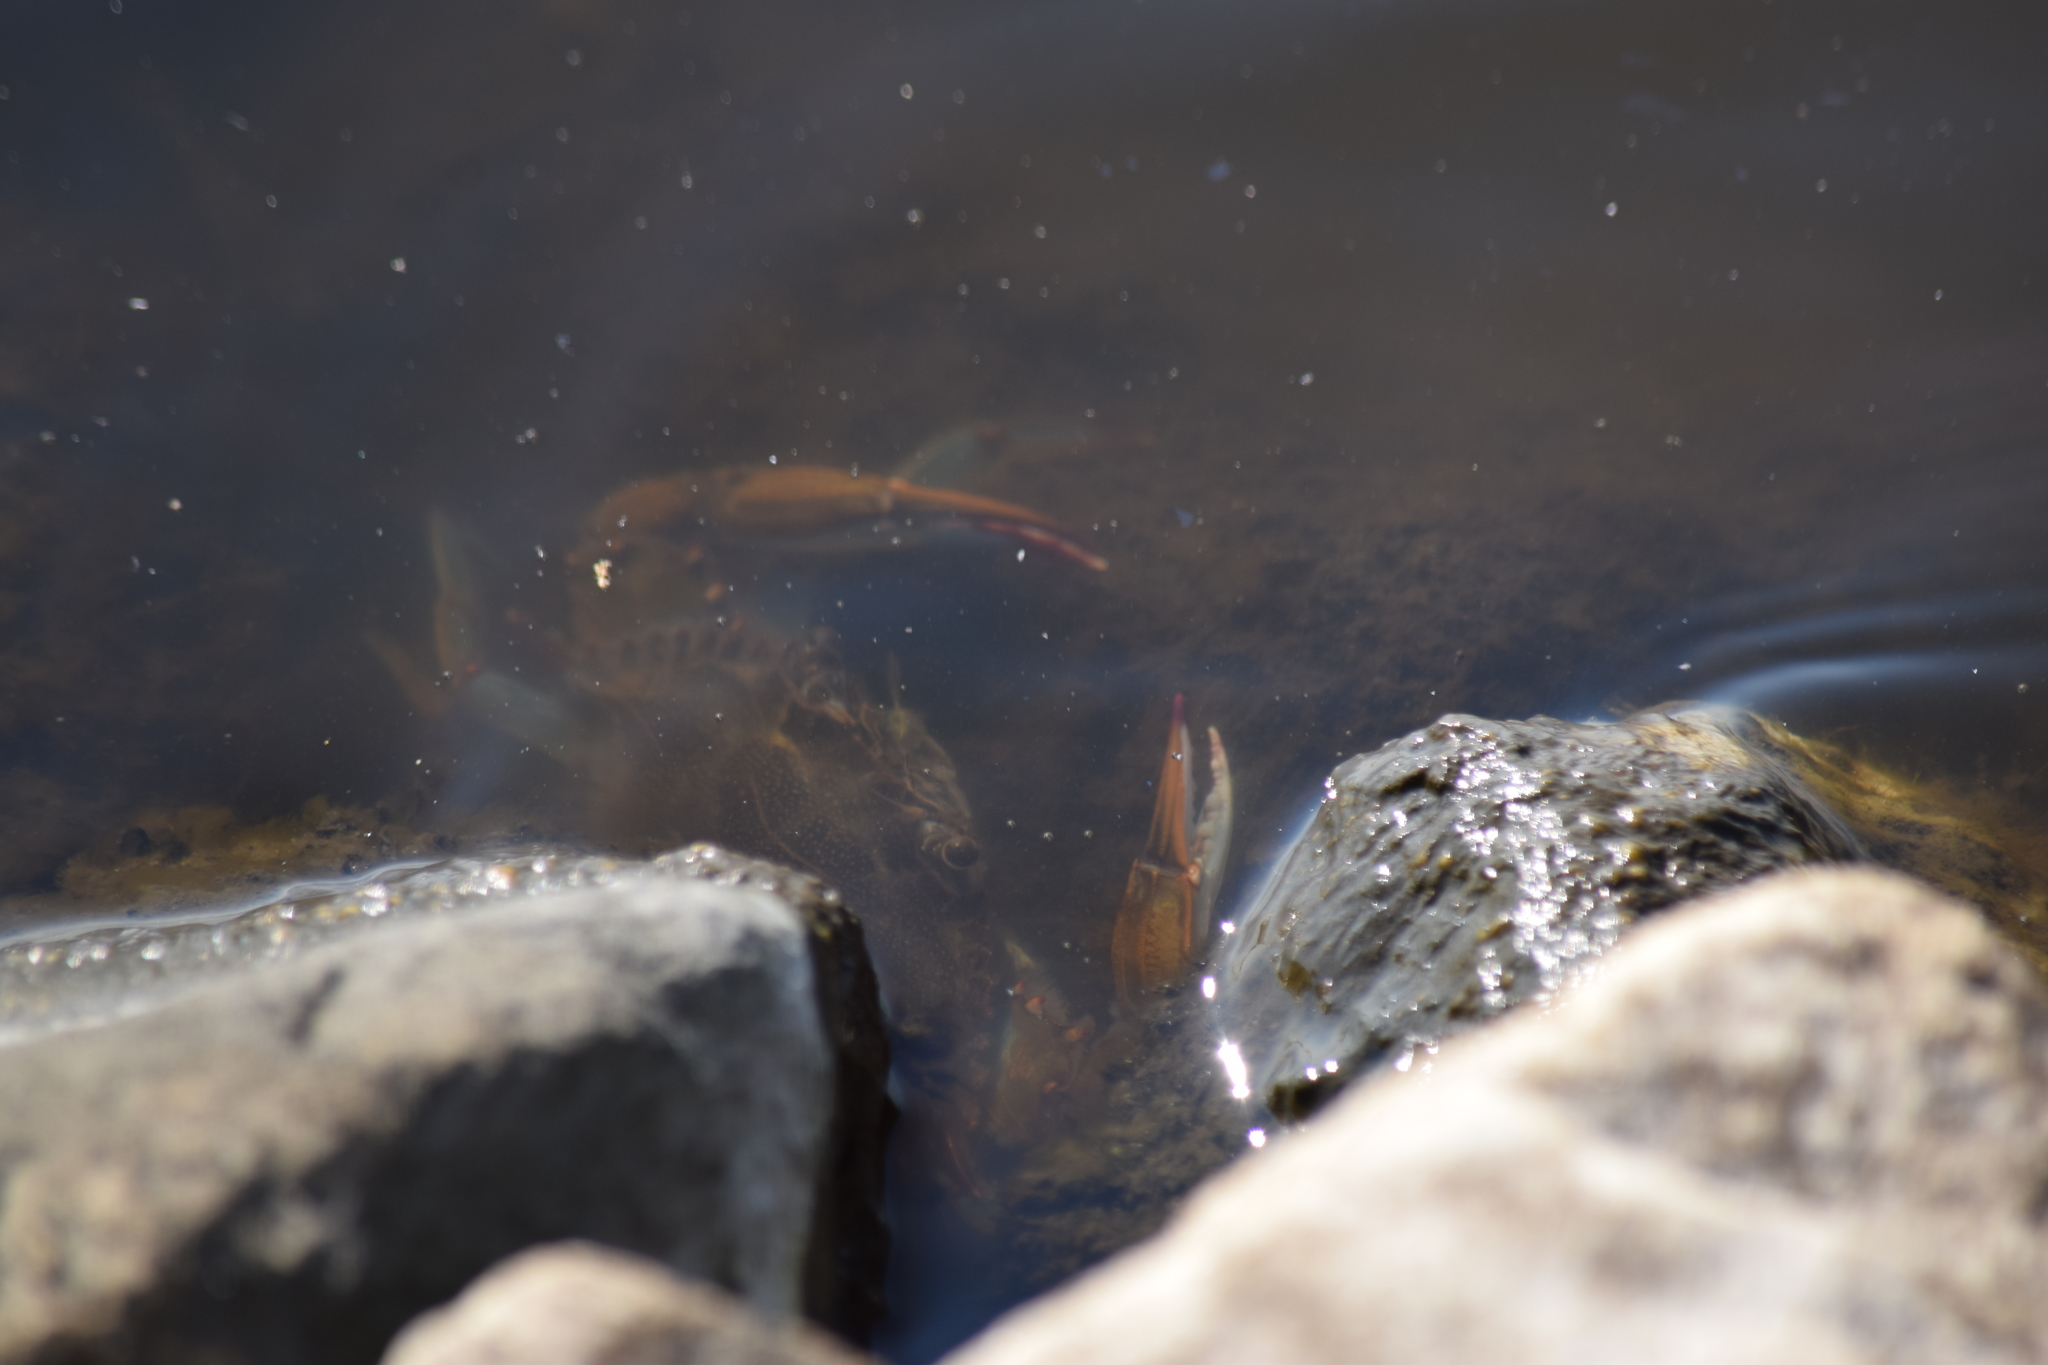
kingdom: Animalia
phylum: Arthropoda
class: Malacostraca
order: Decapoda
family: Portunidae
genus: Callinectes
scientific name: Callinectes sapidus
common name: Blue crab
